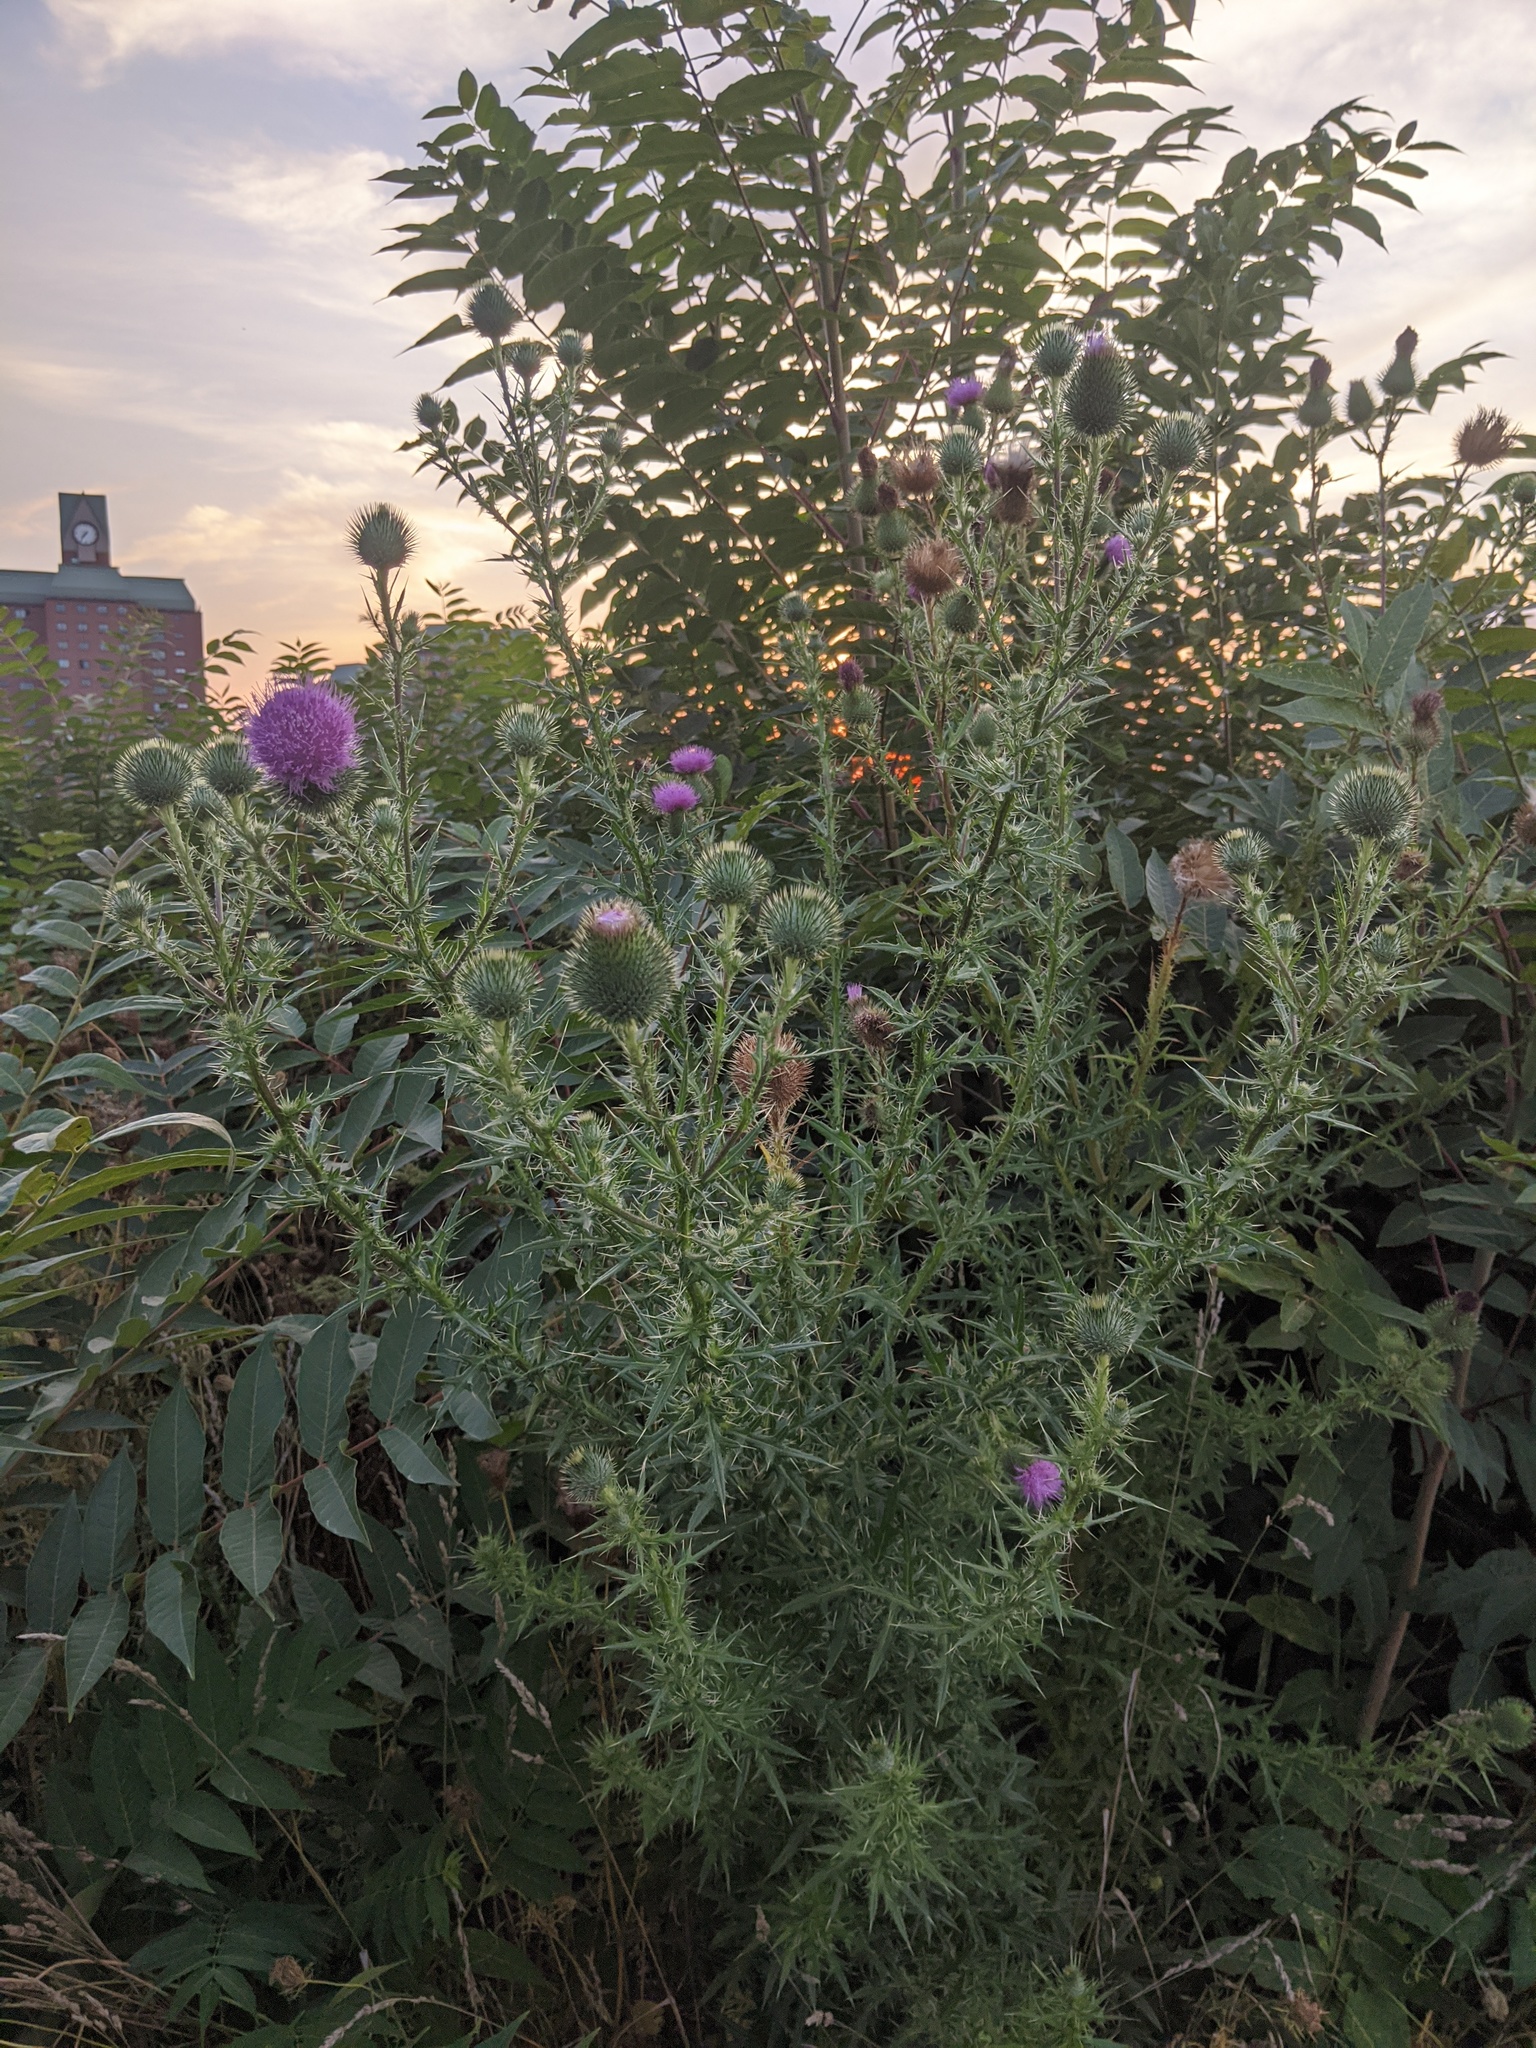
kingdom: Plantae
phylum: Tracheophyta
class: Magnoliopsida
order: Asterales
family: Asteraceae
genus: Cirsium
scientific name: Cirsium vulgare
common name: Bull thistle
